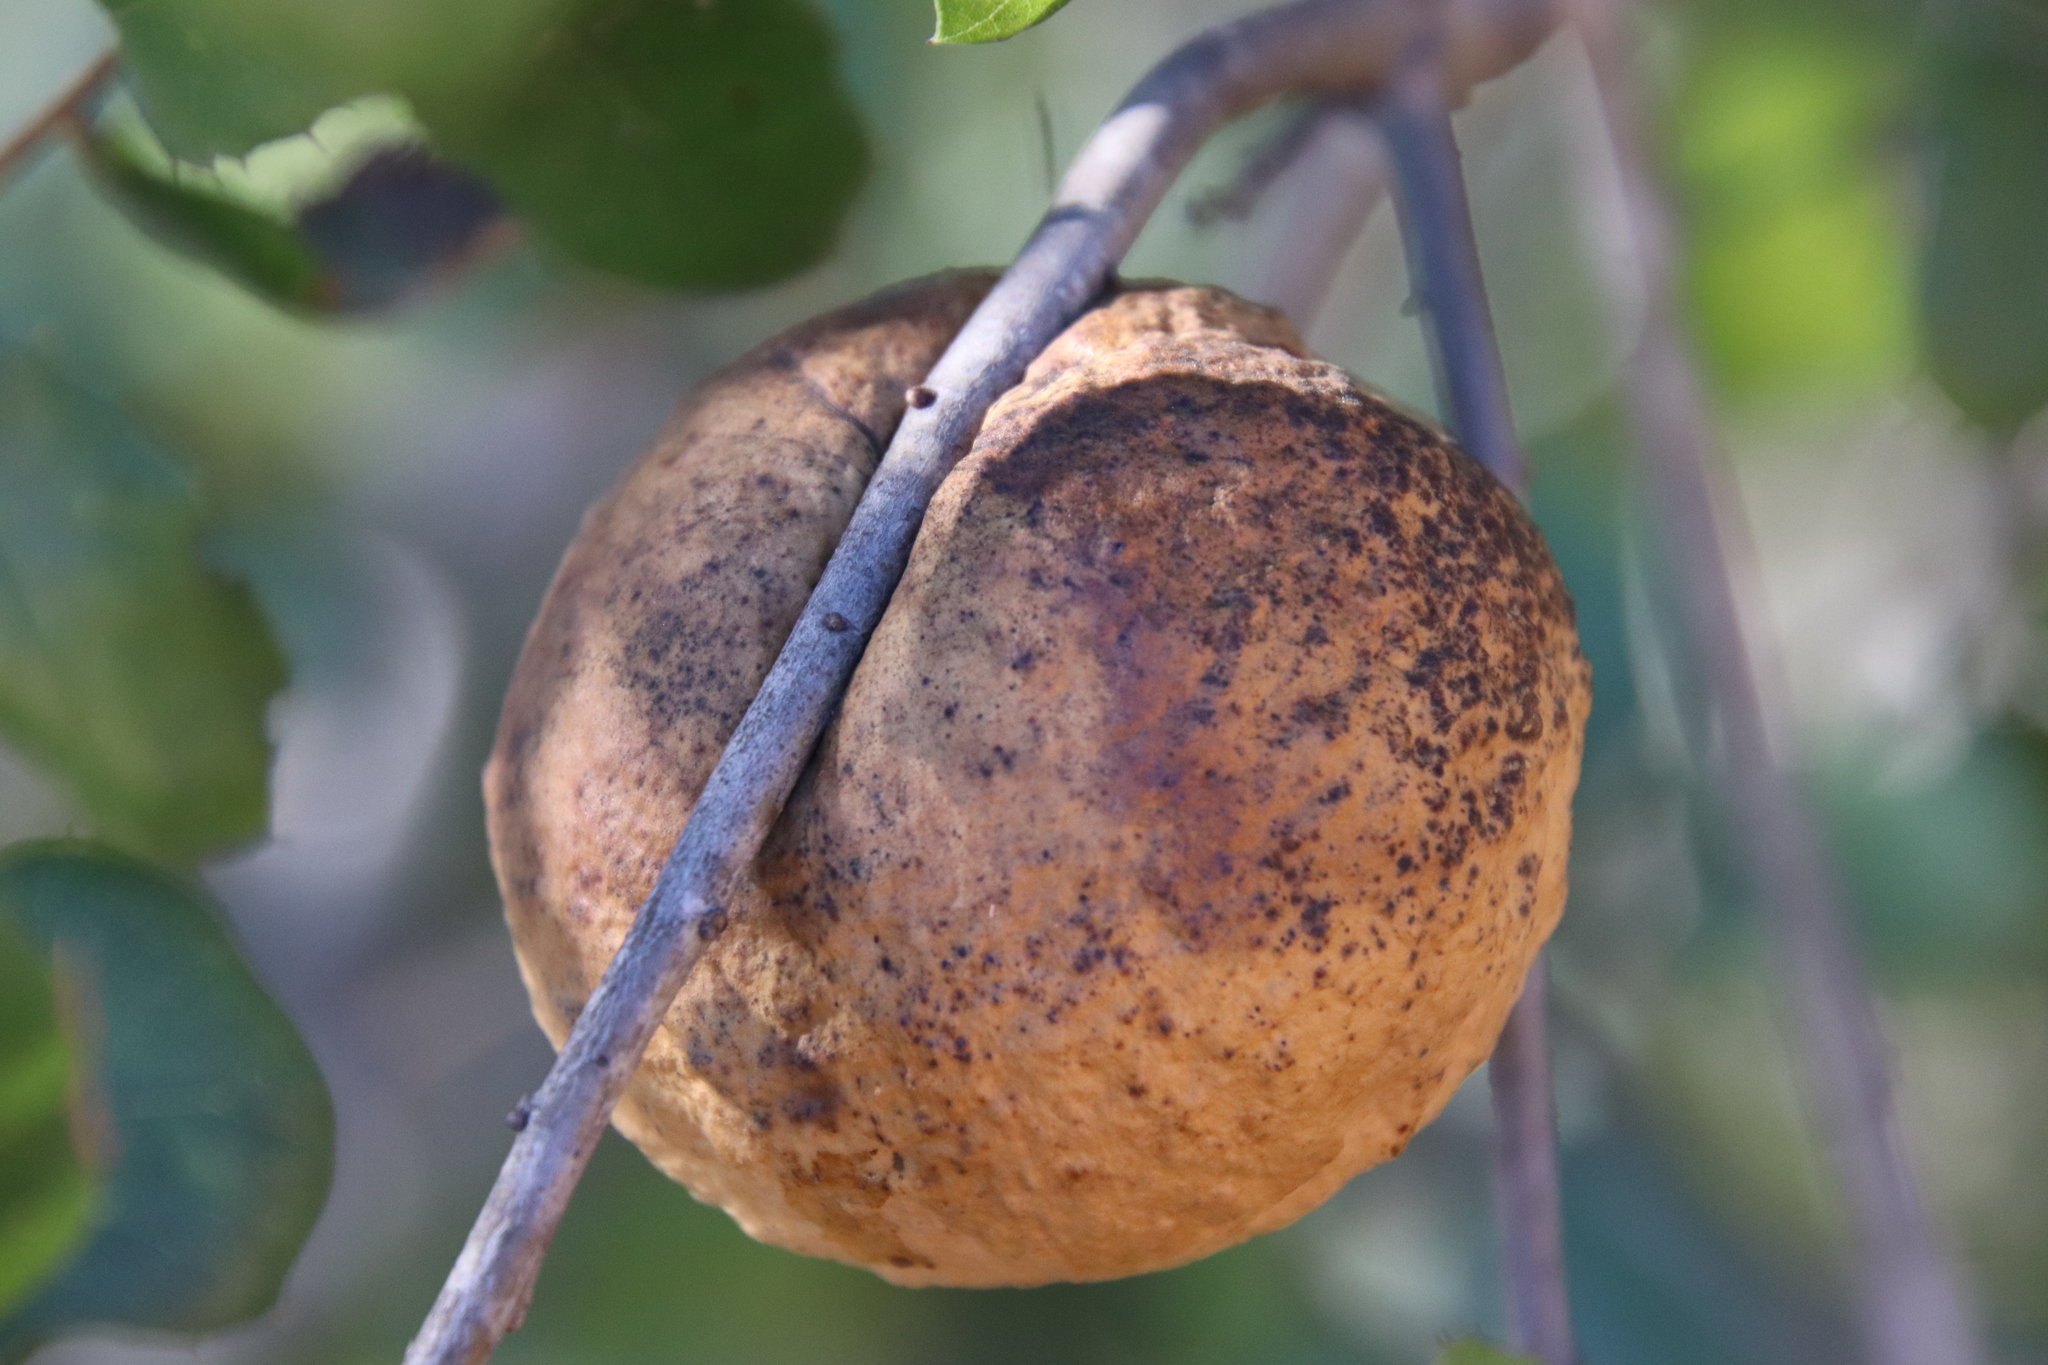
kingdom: Animalia
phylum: Arthropoda
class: Insecta
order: Hymenoptera
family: Cynipidae
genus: Amphibolips
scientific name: Amphibolips quercuspomiformis
